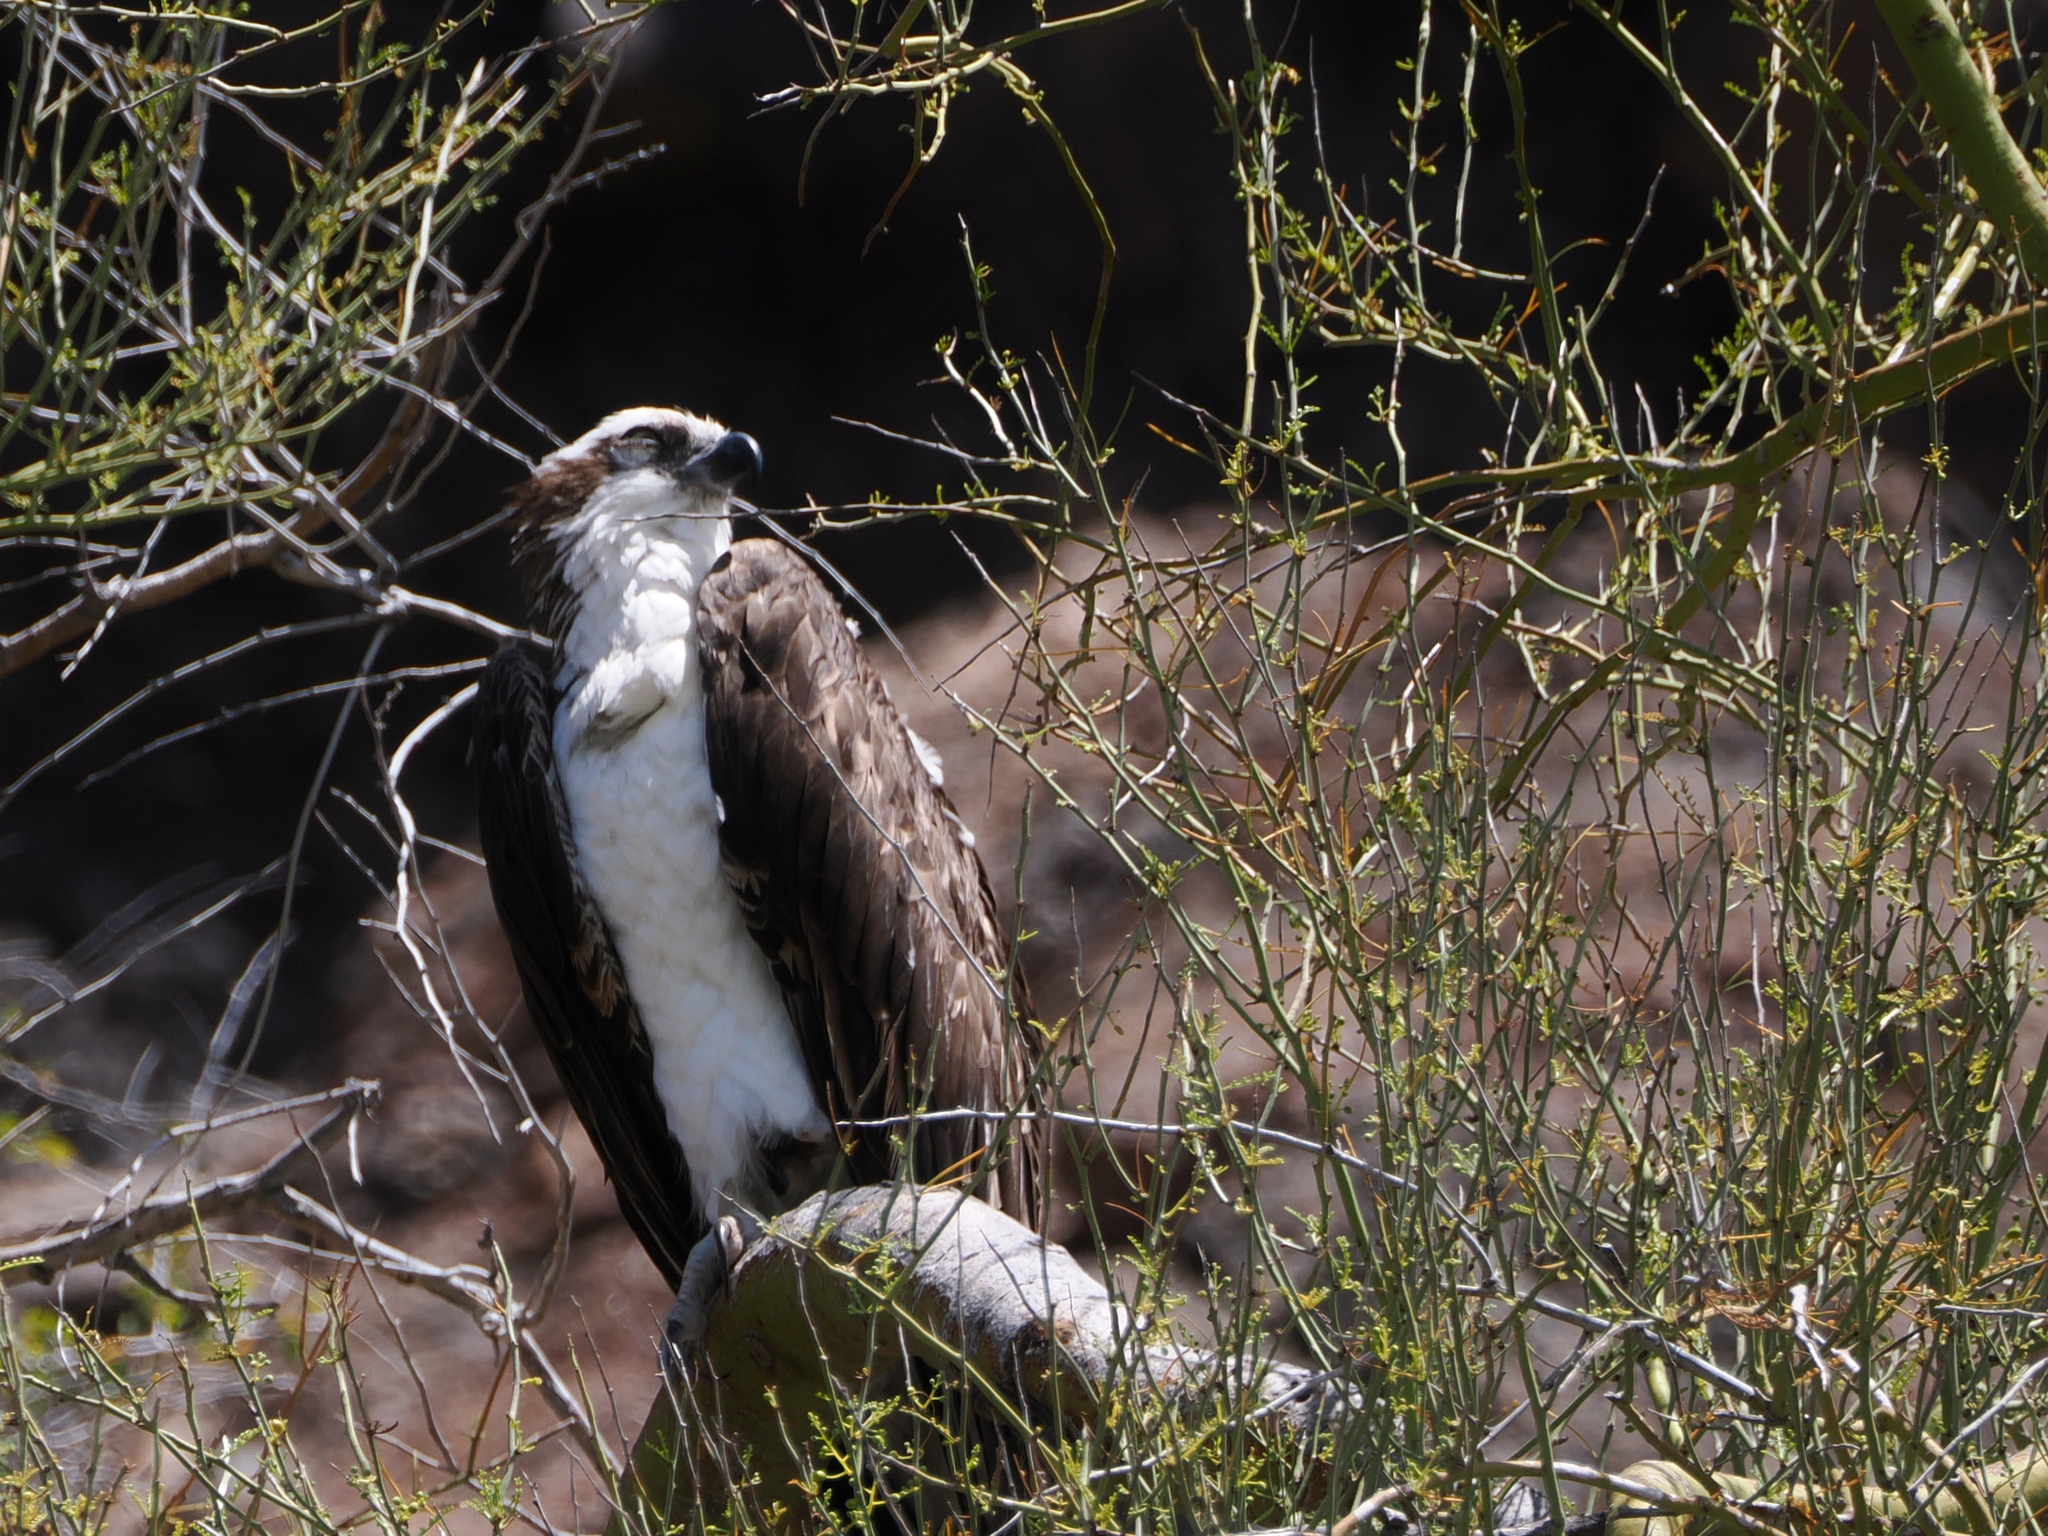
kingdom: Animalia
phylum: Chordata
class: Aves
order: Accipitriformes
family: Pandionidae
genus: Pandion
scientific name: Pandion haliaetus
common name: Osprey
